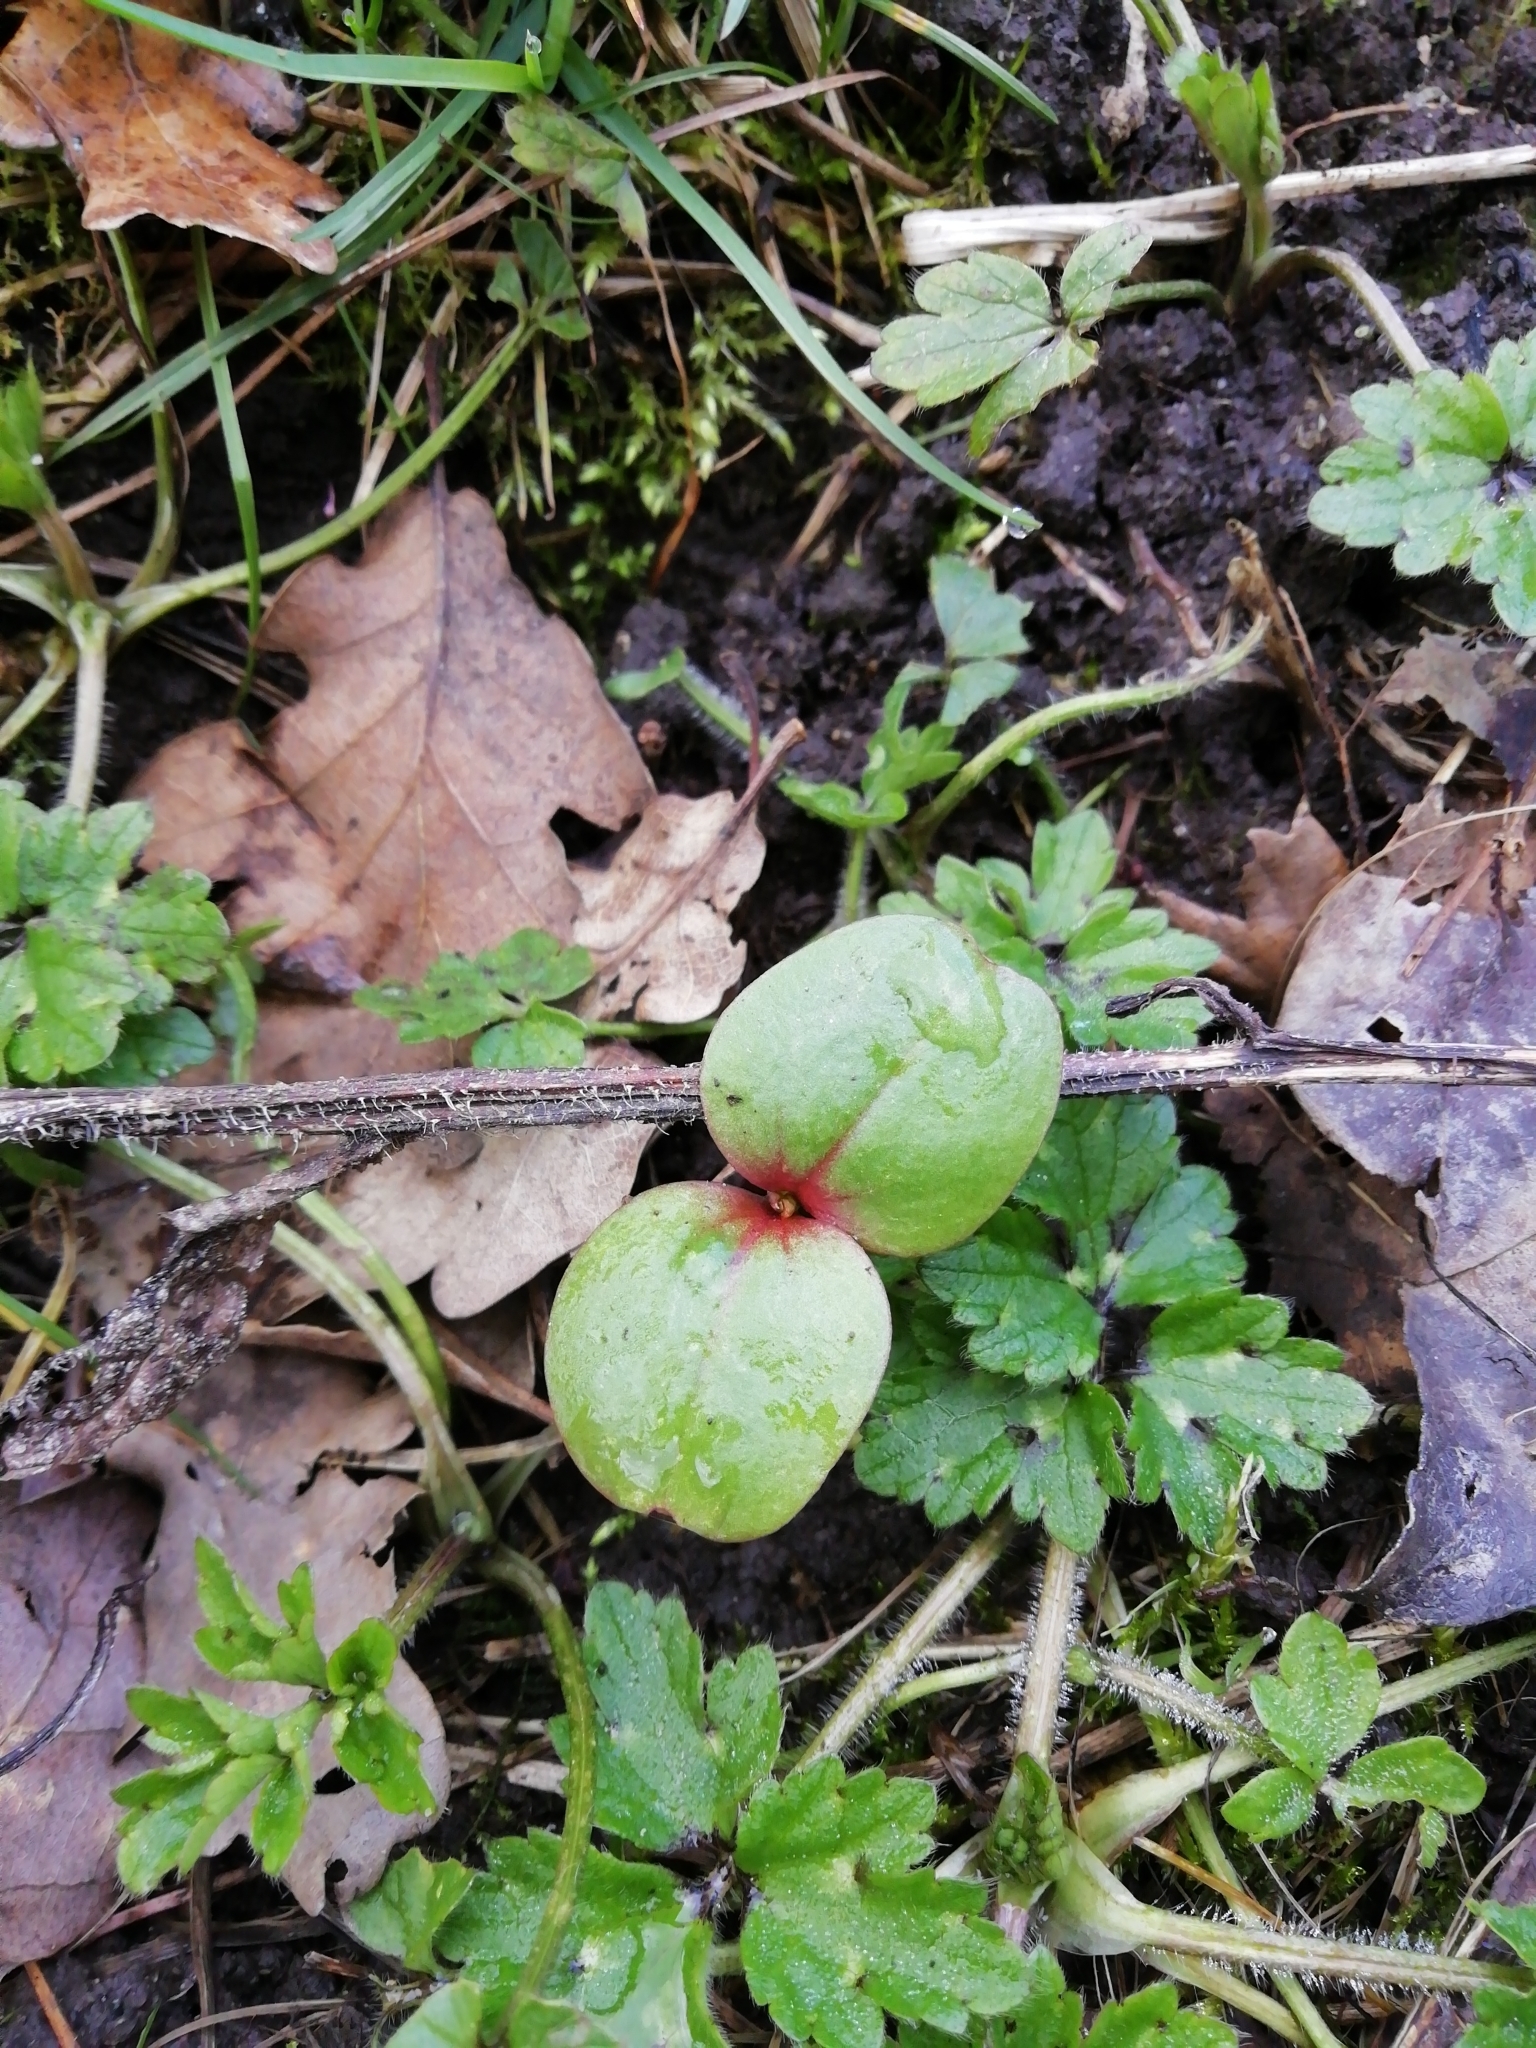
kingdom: Plantae
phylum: Tracheophyta
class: Magnoliopsida
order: Ericales
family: Balsaminaceae
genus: Impatiens
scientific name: Impatiens glandulifera
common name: Himalayan balsam
